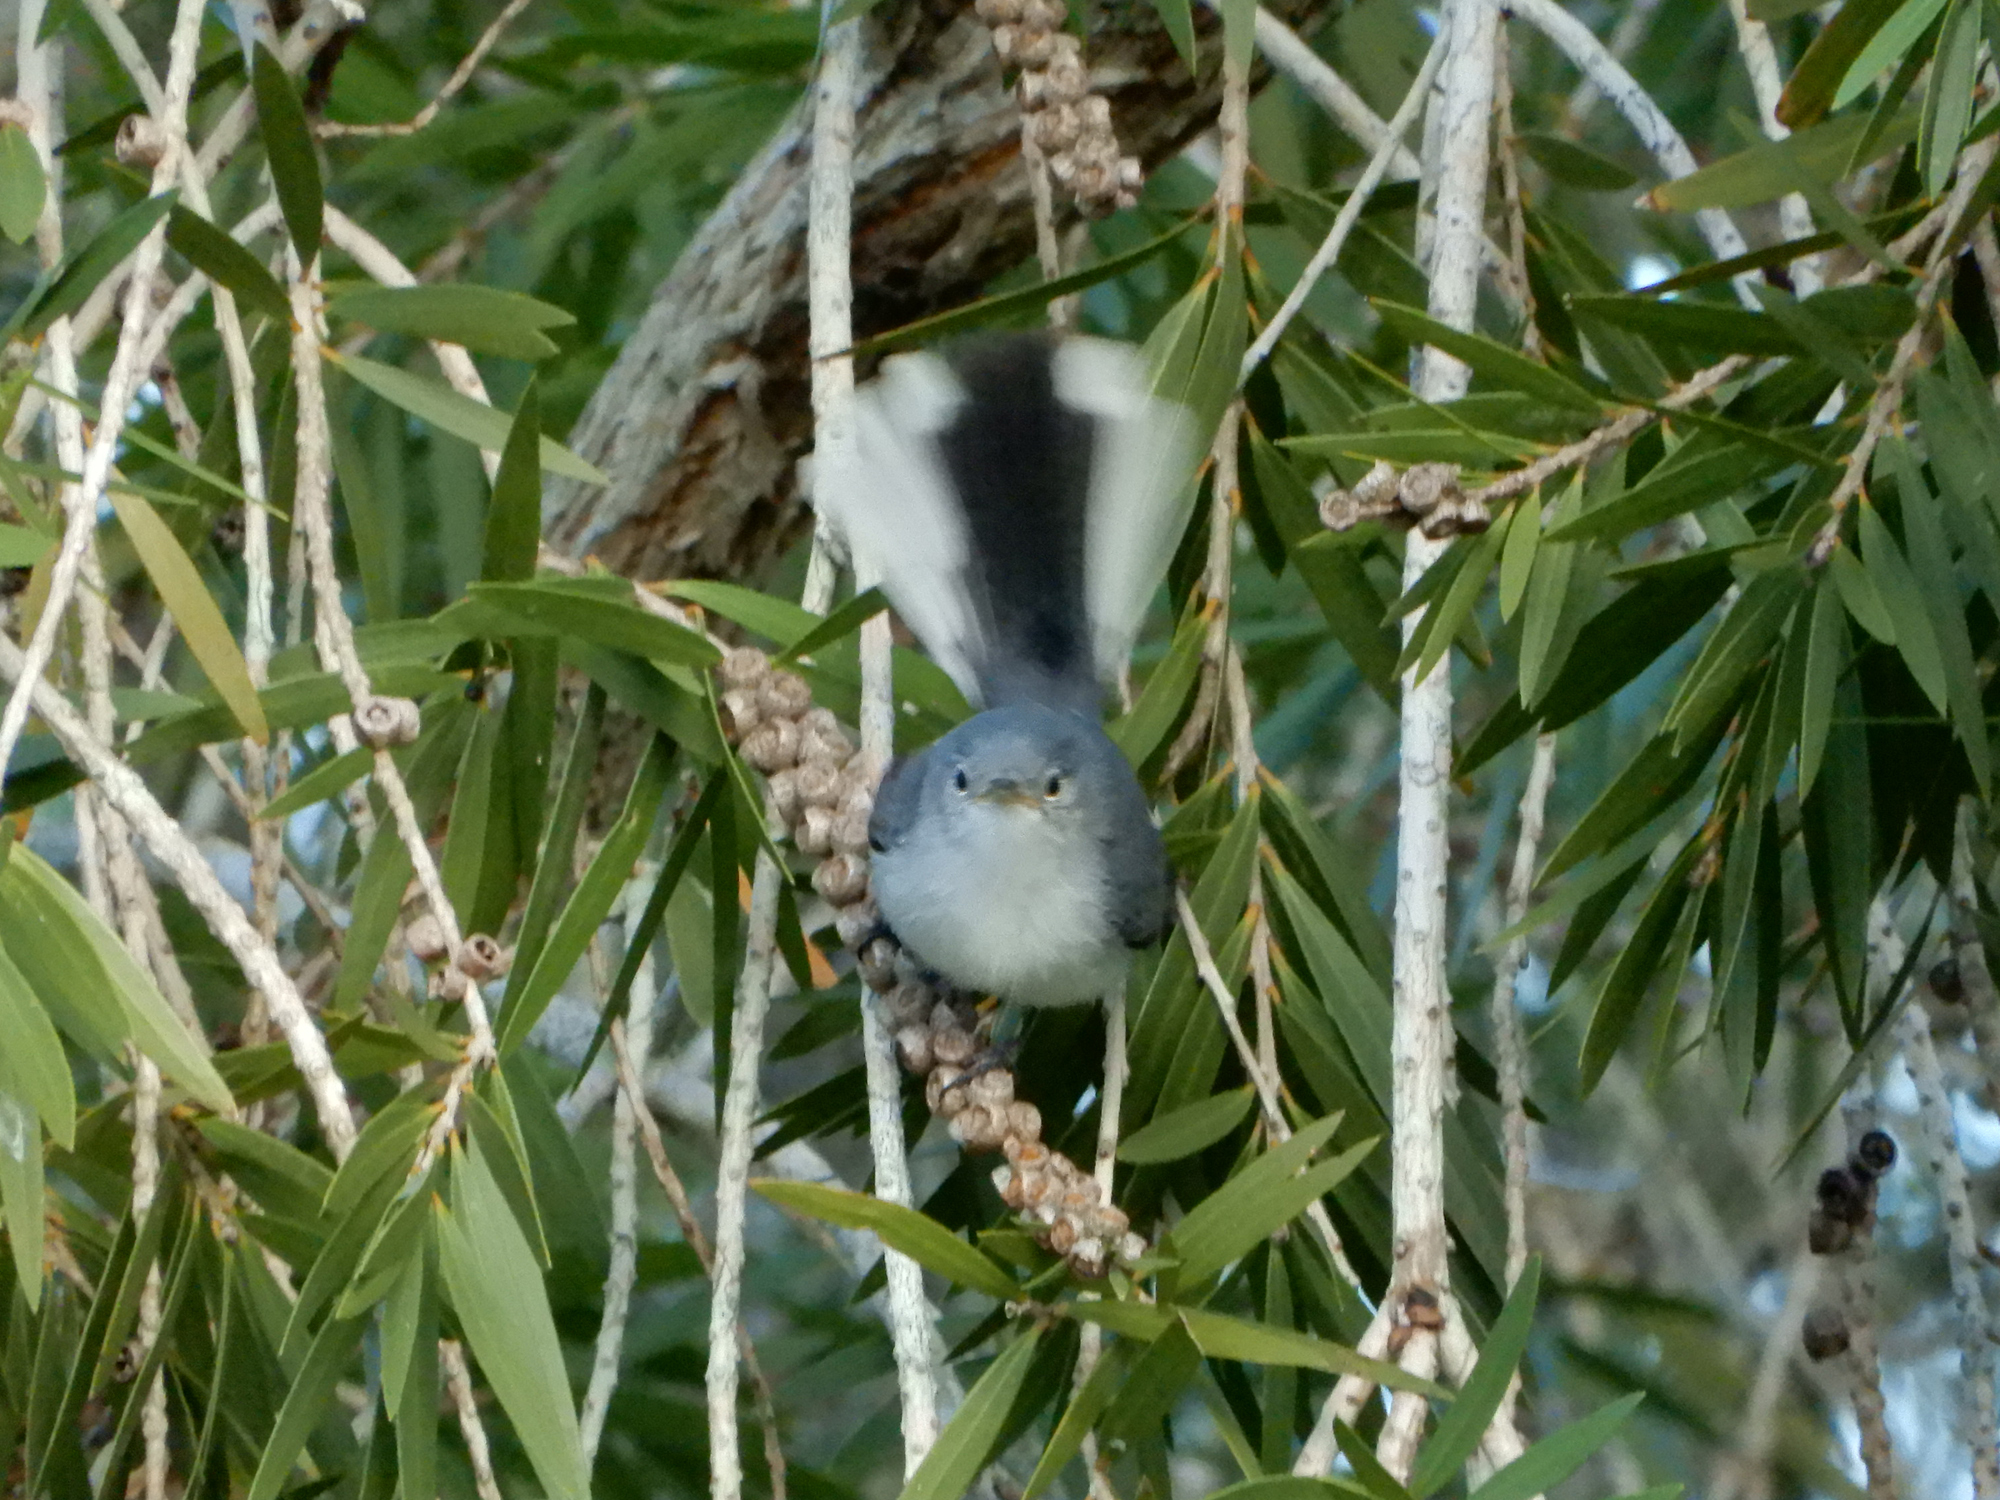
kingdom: Animalia
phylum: Chordata
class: Aves
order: Passeriformes
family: Polioptilidae
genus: Polioptila
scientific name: Polioptila caerulea
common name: Blue-gray gnatcatcher
